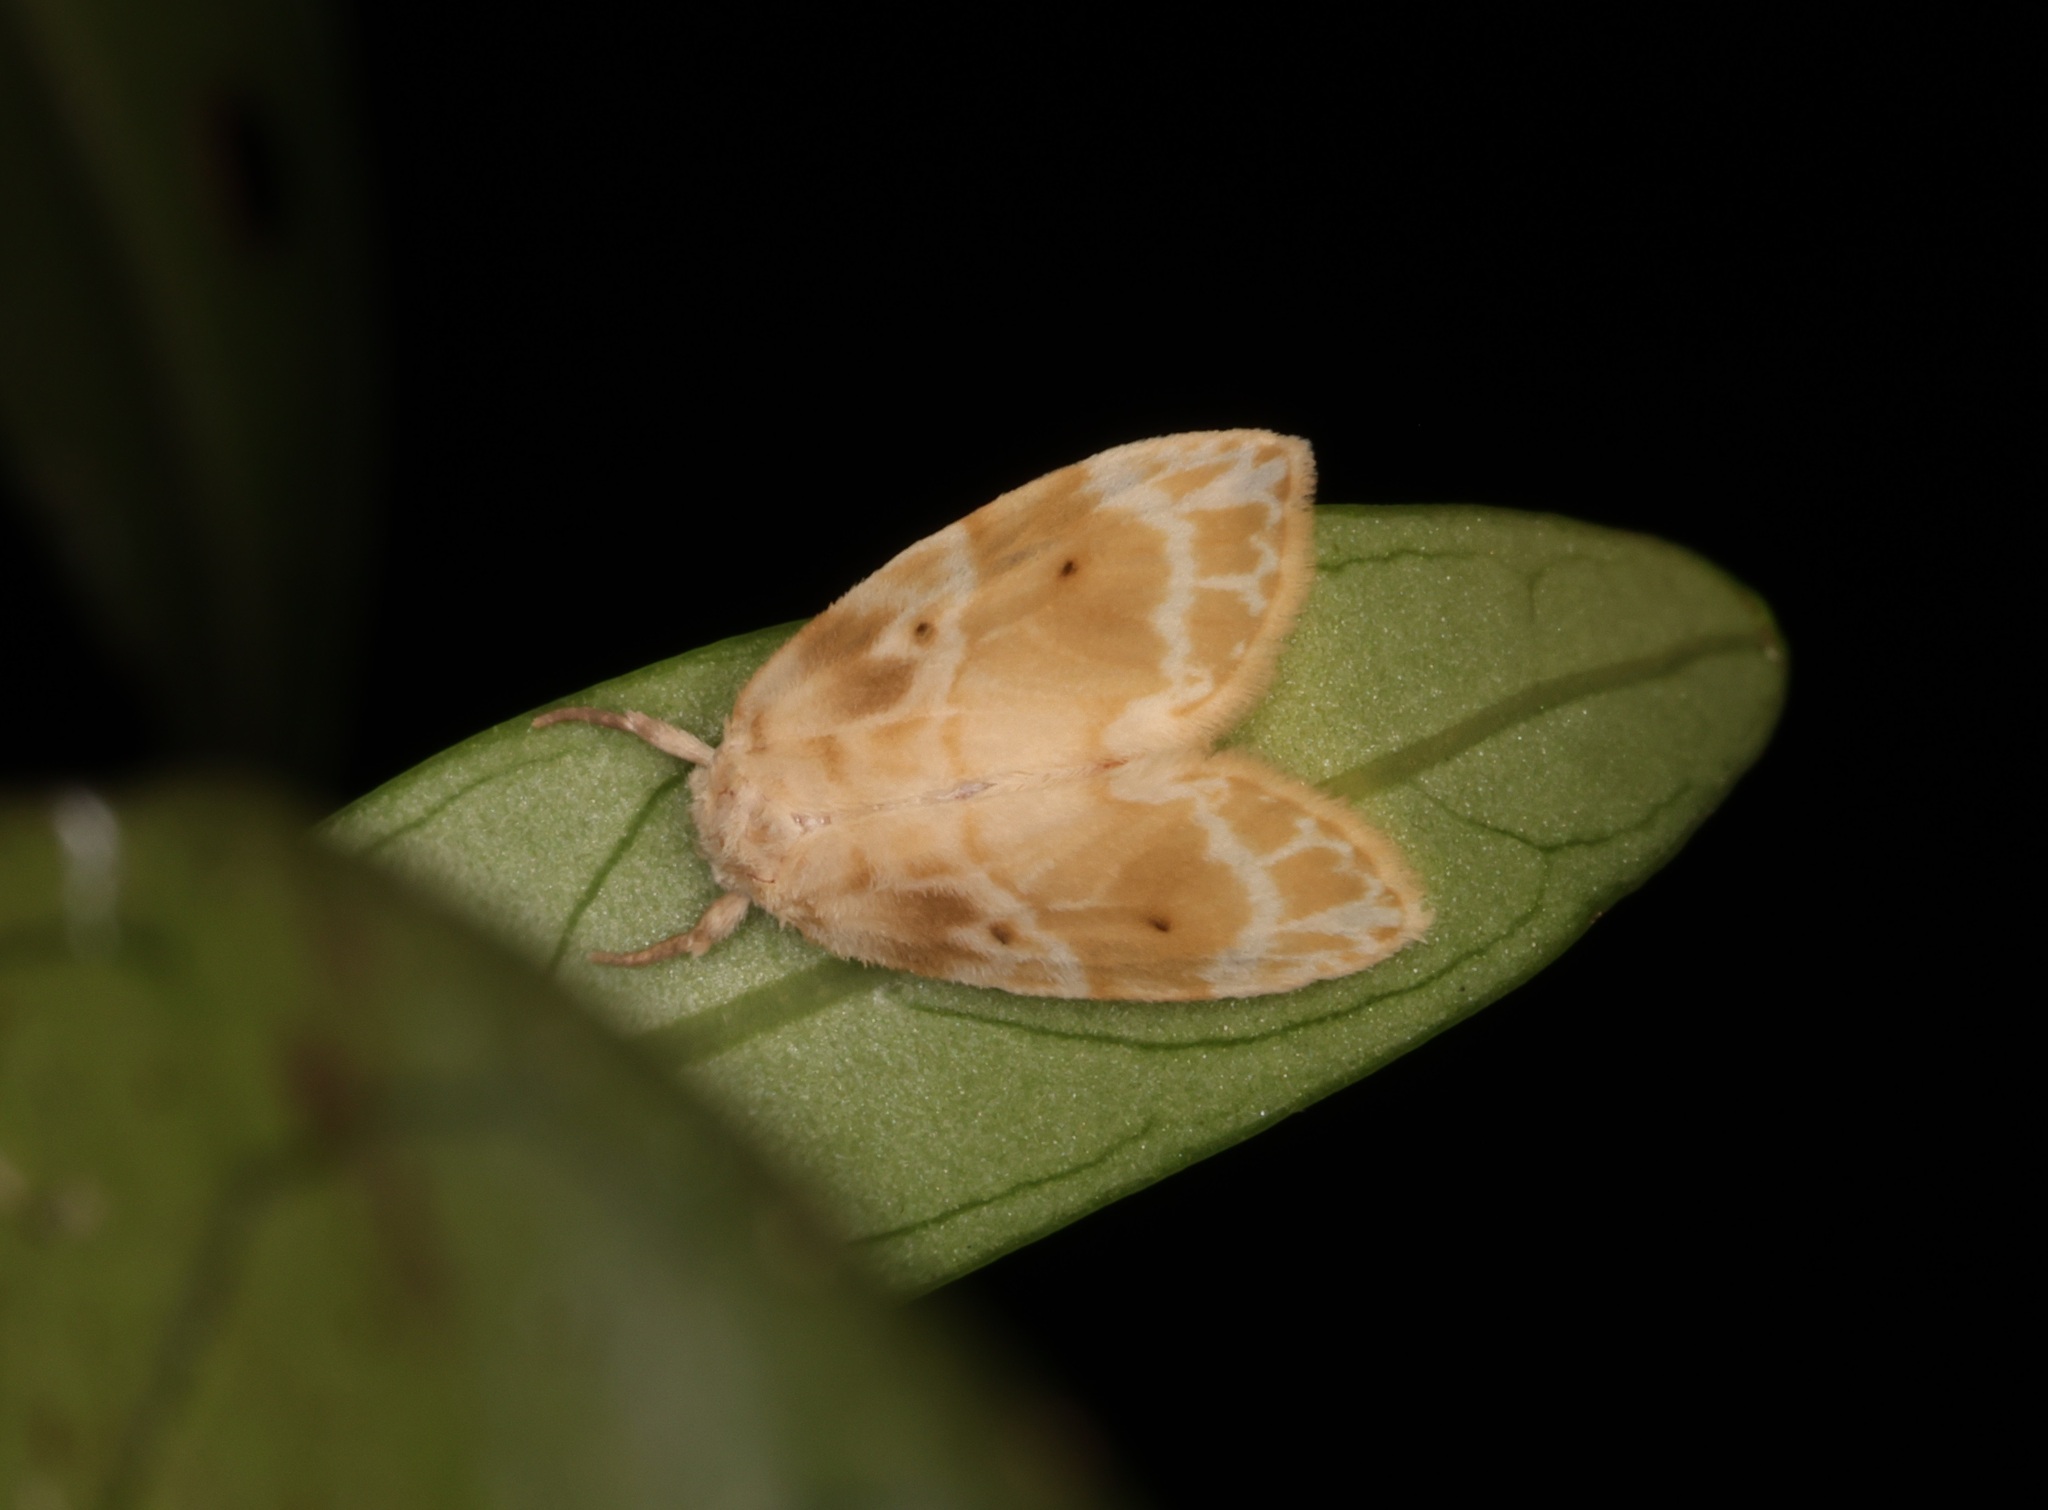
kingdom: Animalia
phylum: Arthropoda
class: Insecta
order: Lepidoptera
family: Erebidae
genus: Schistophleps
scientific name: Schistophleps bipuncta
